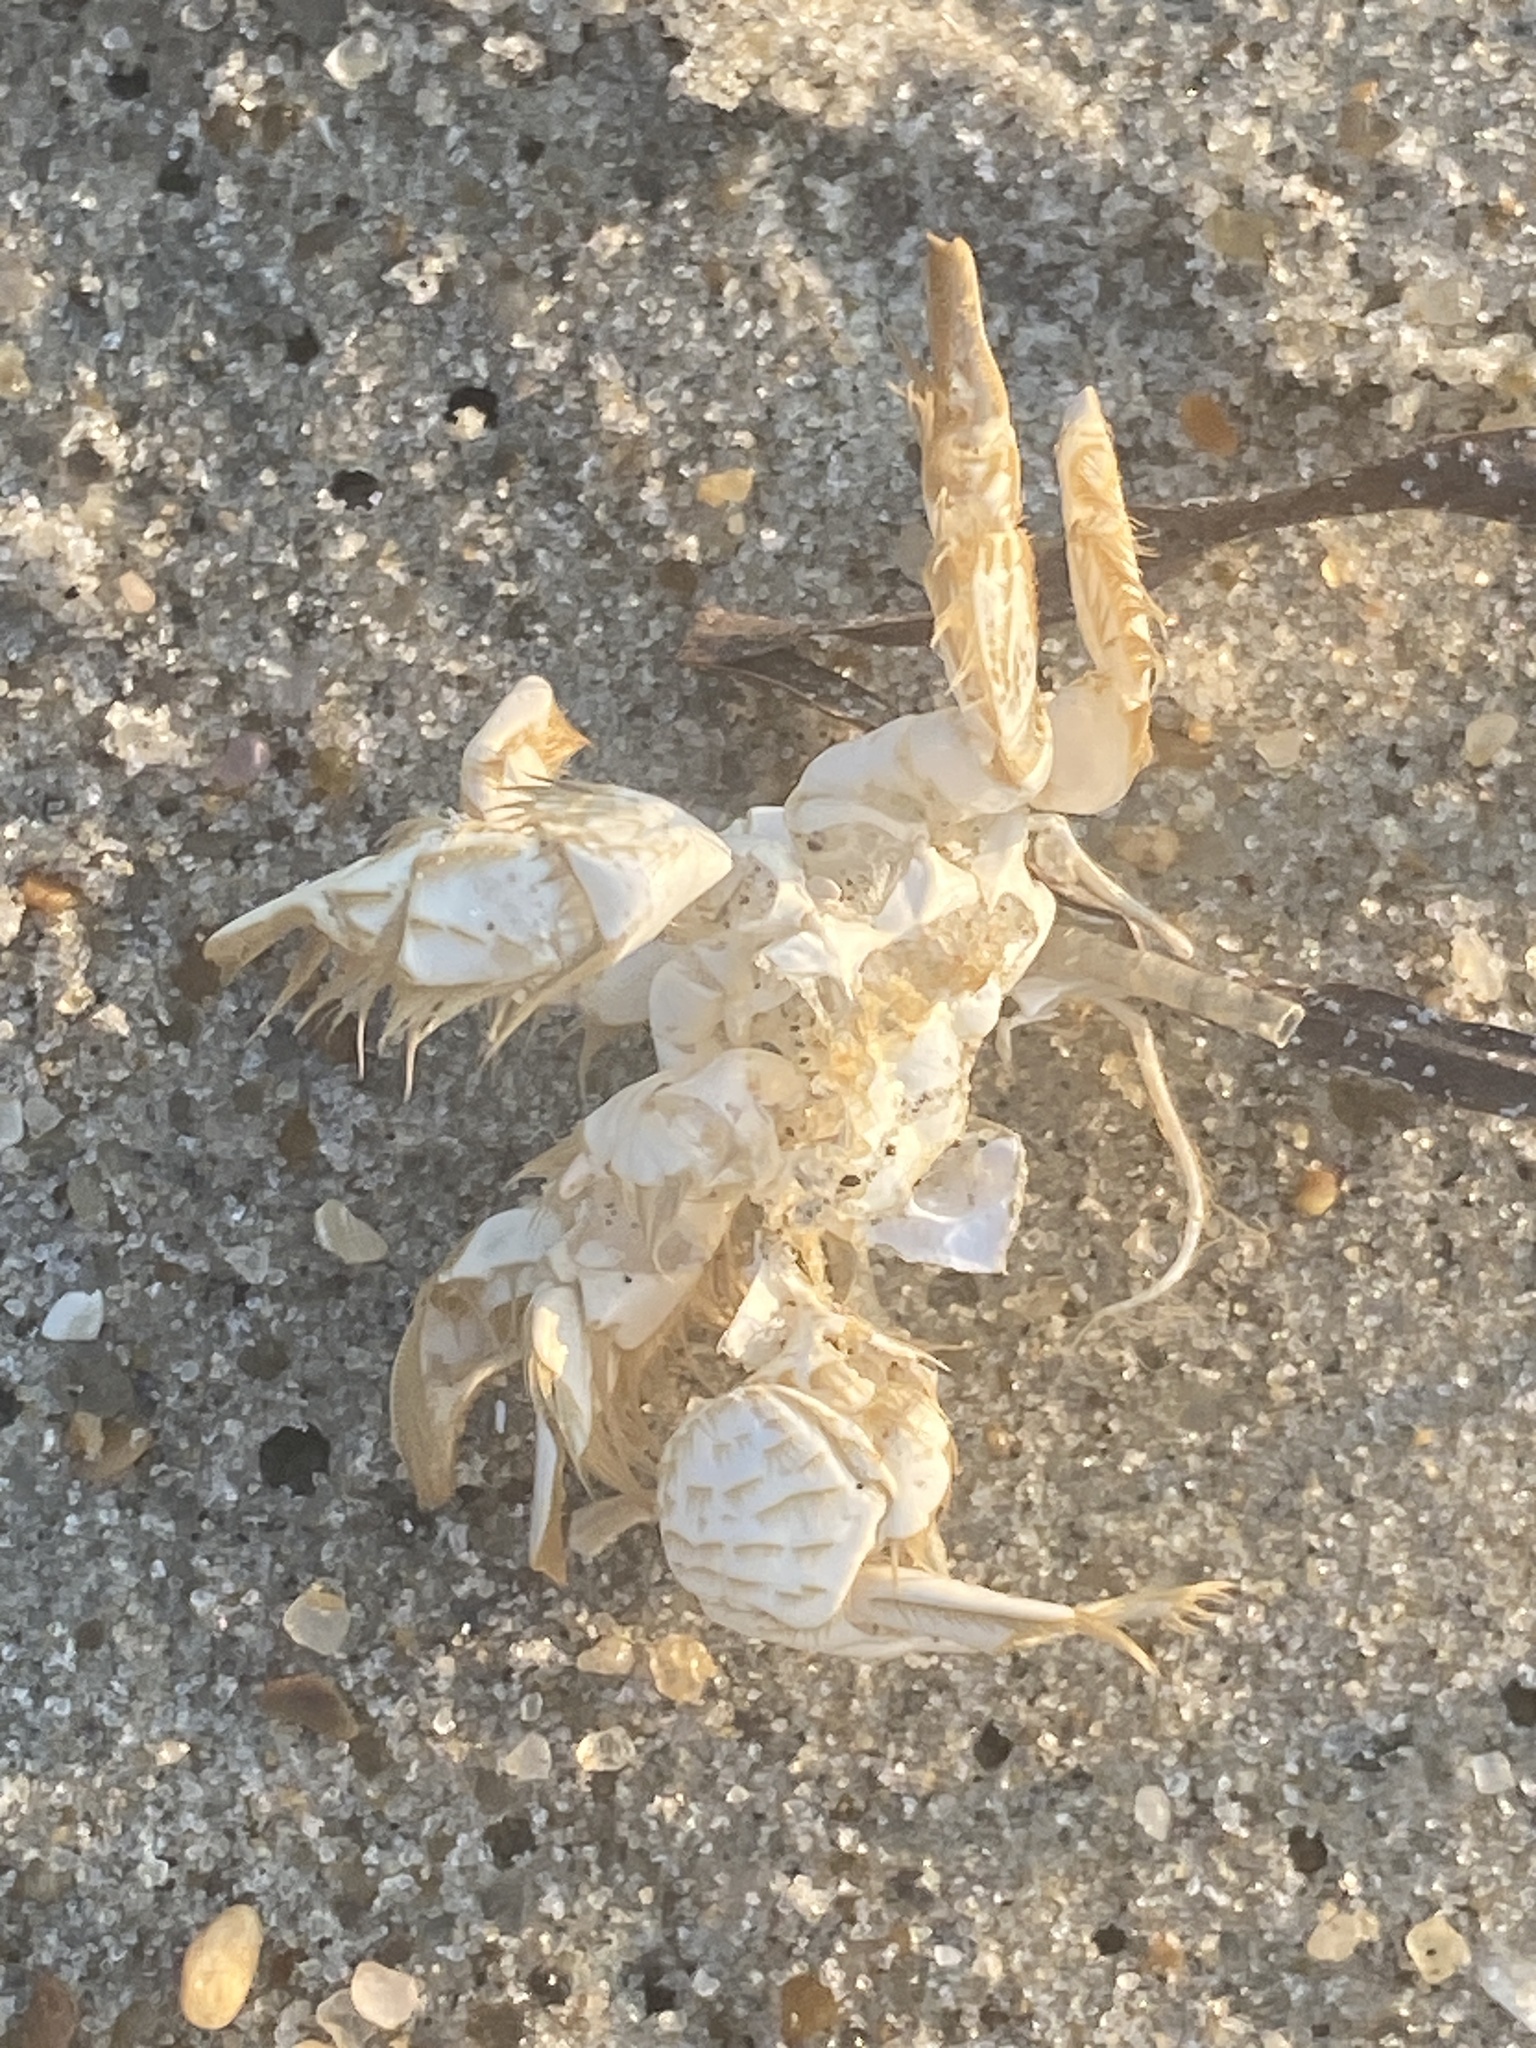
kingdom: Animalia
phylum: Arthropoda
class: Malacostraca
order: Decapoda
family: Hippidae
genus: Emerita
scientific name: Emerita talpoida
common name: Atlantic sand crab
